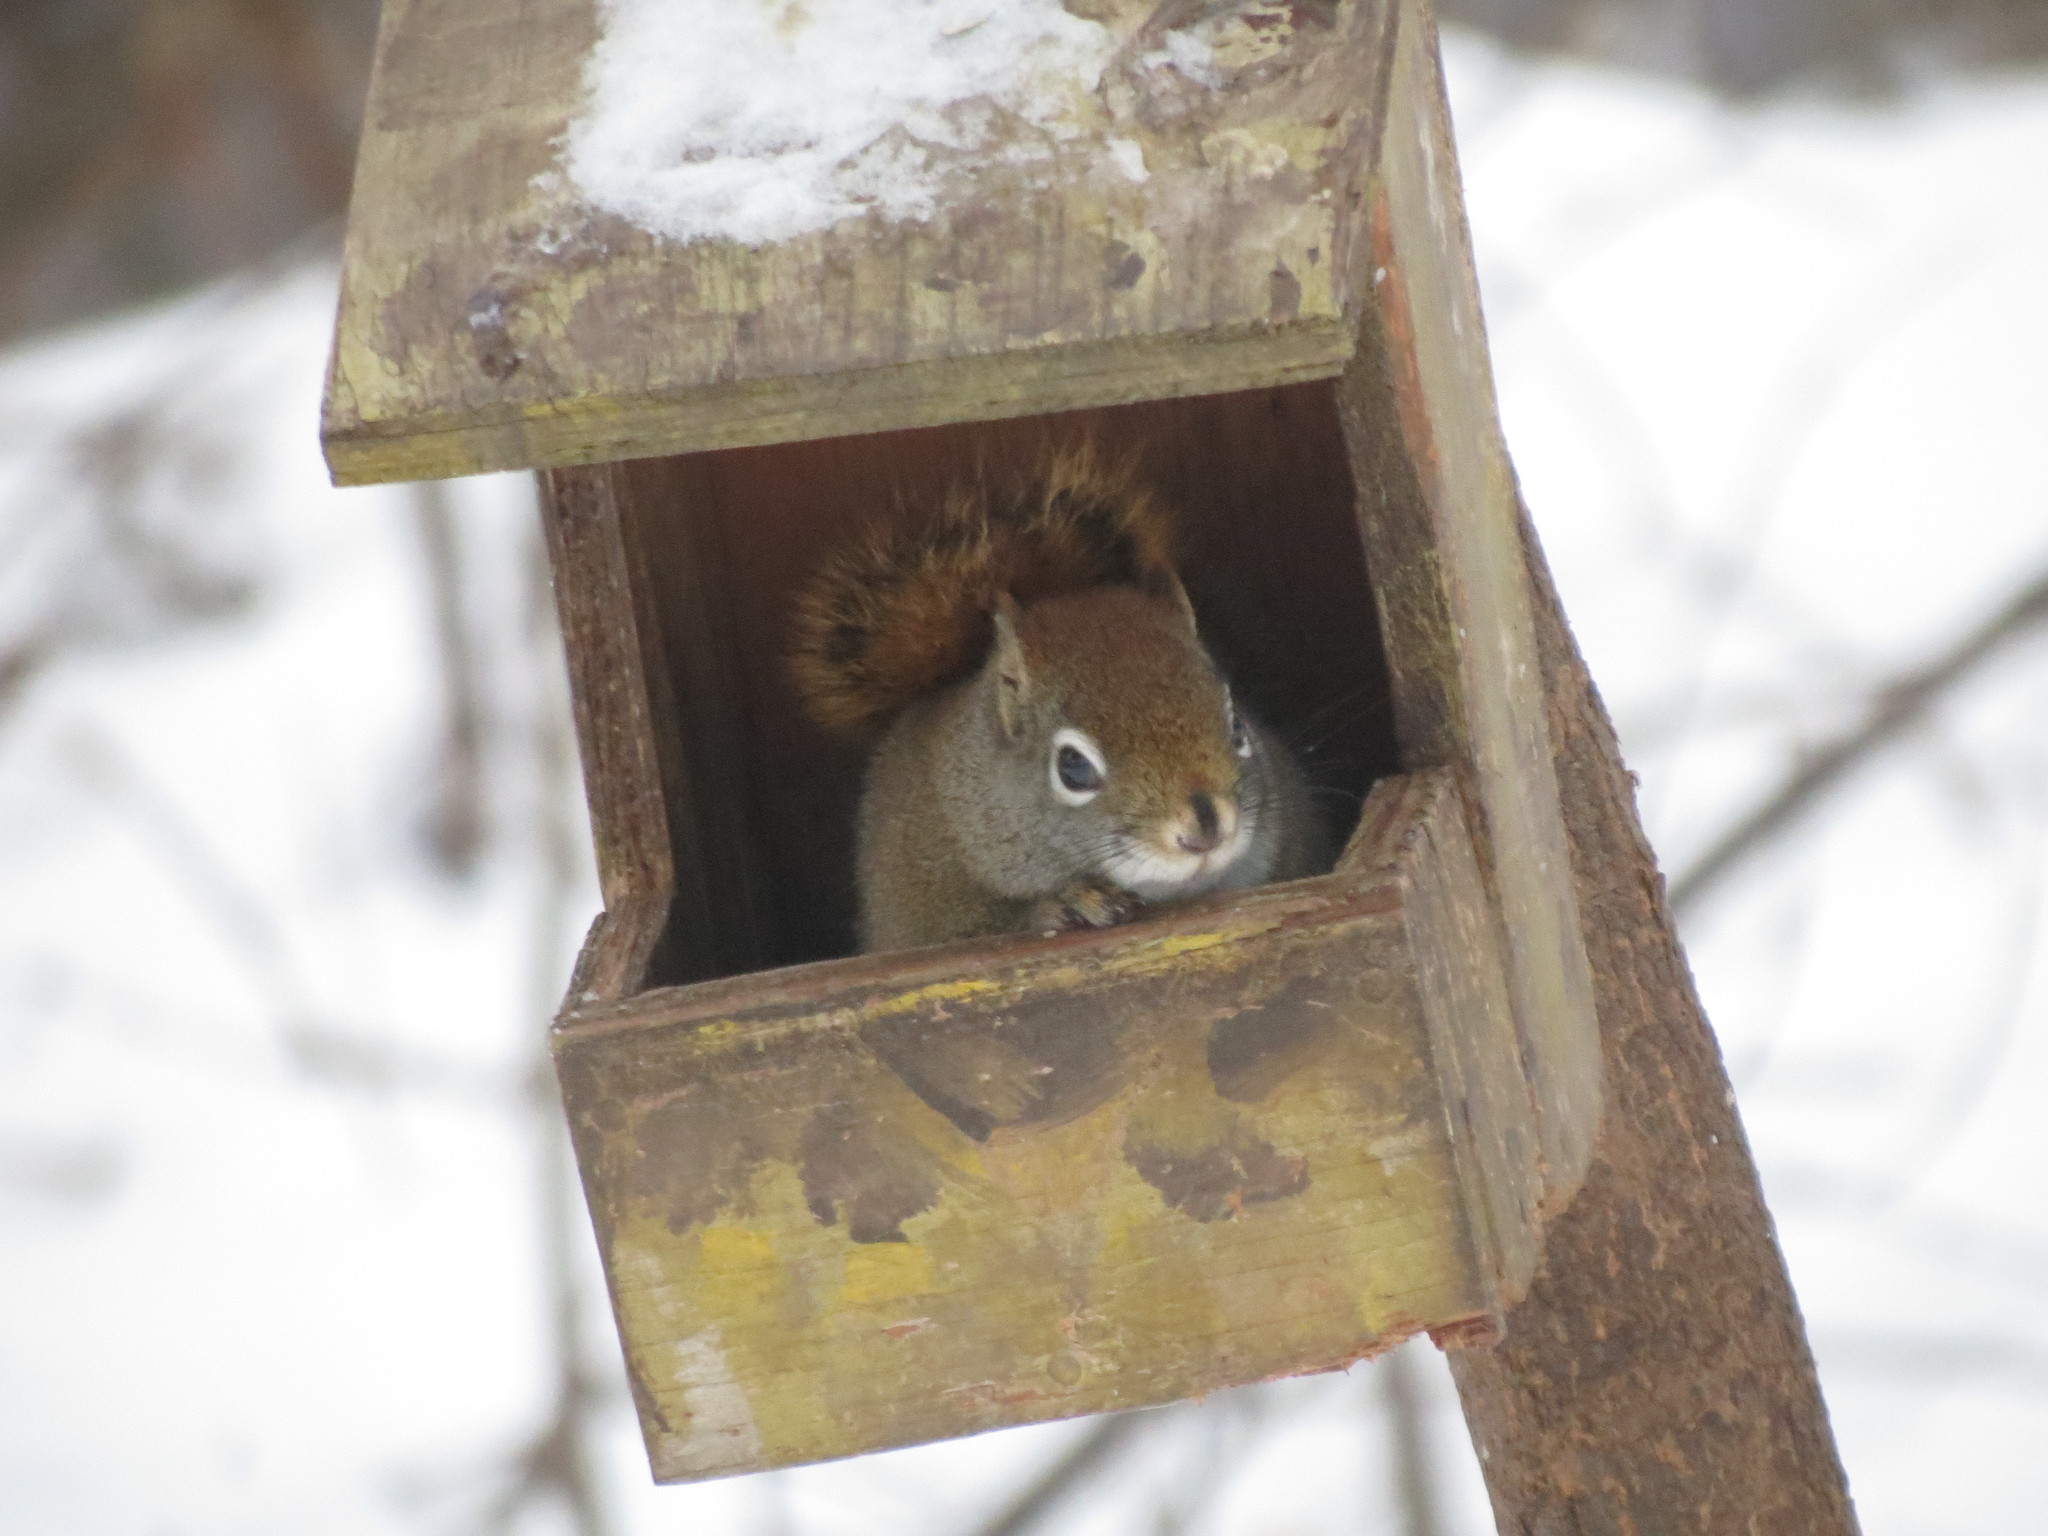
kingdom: Animalia
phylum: Chordata
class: Mammalia
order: Rodentia
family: Sciuridae
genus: Tamiasciurus
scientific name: Tamiasciurus hudsonicus
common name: Red squirrel
